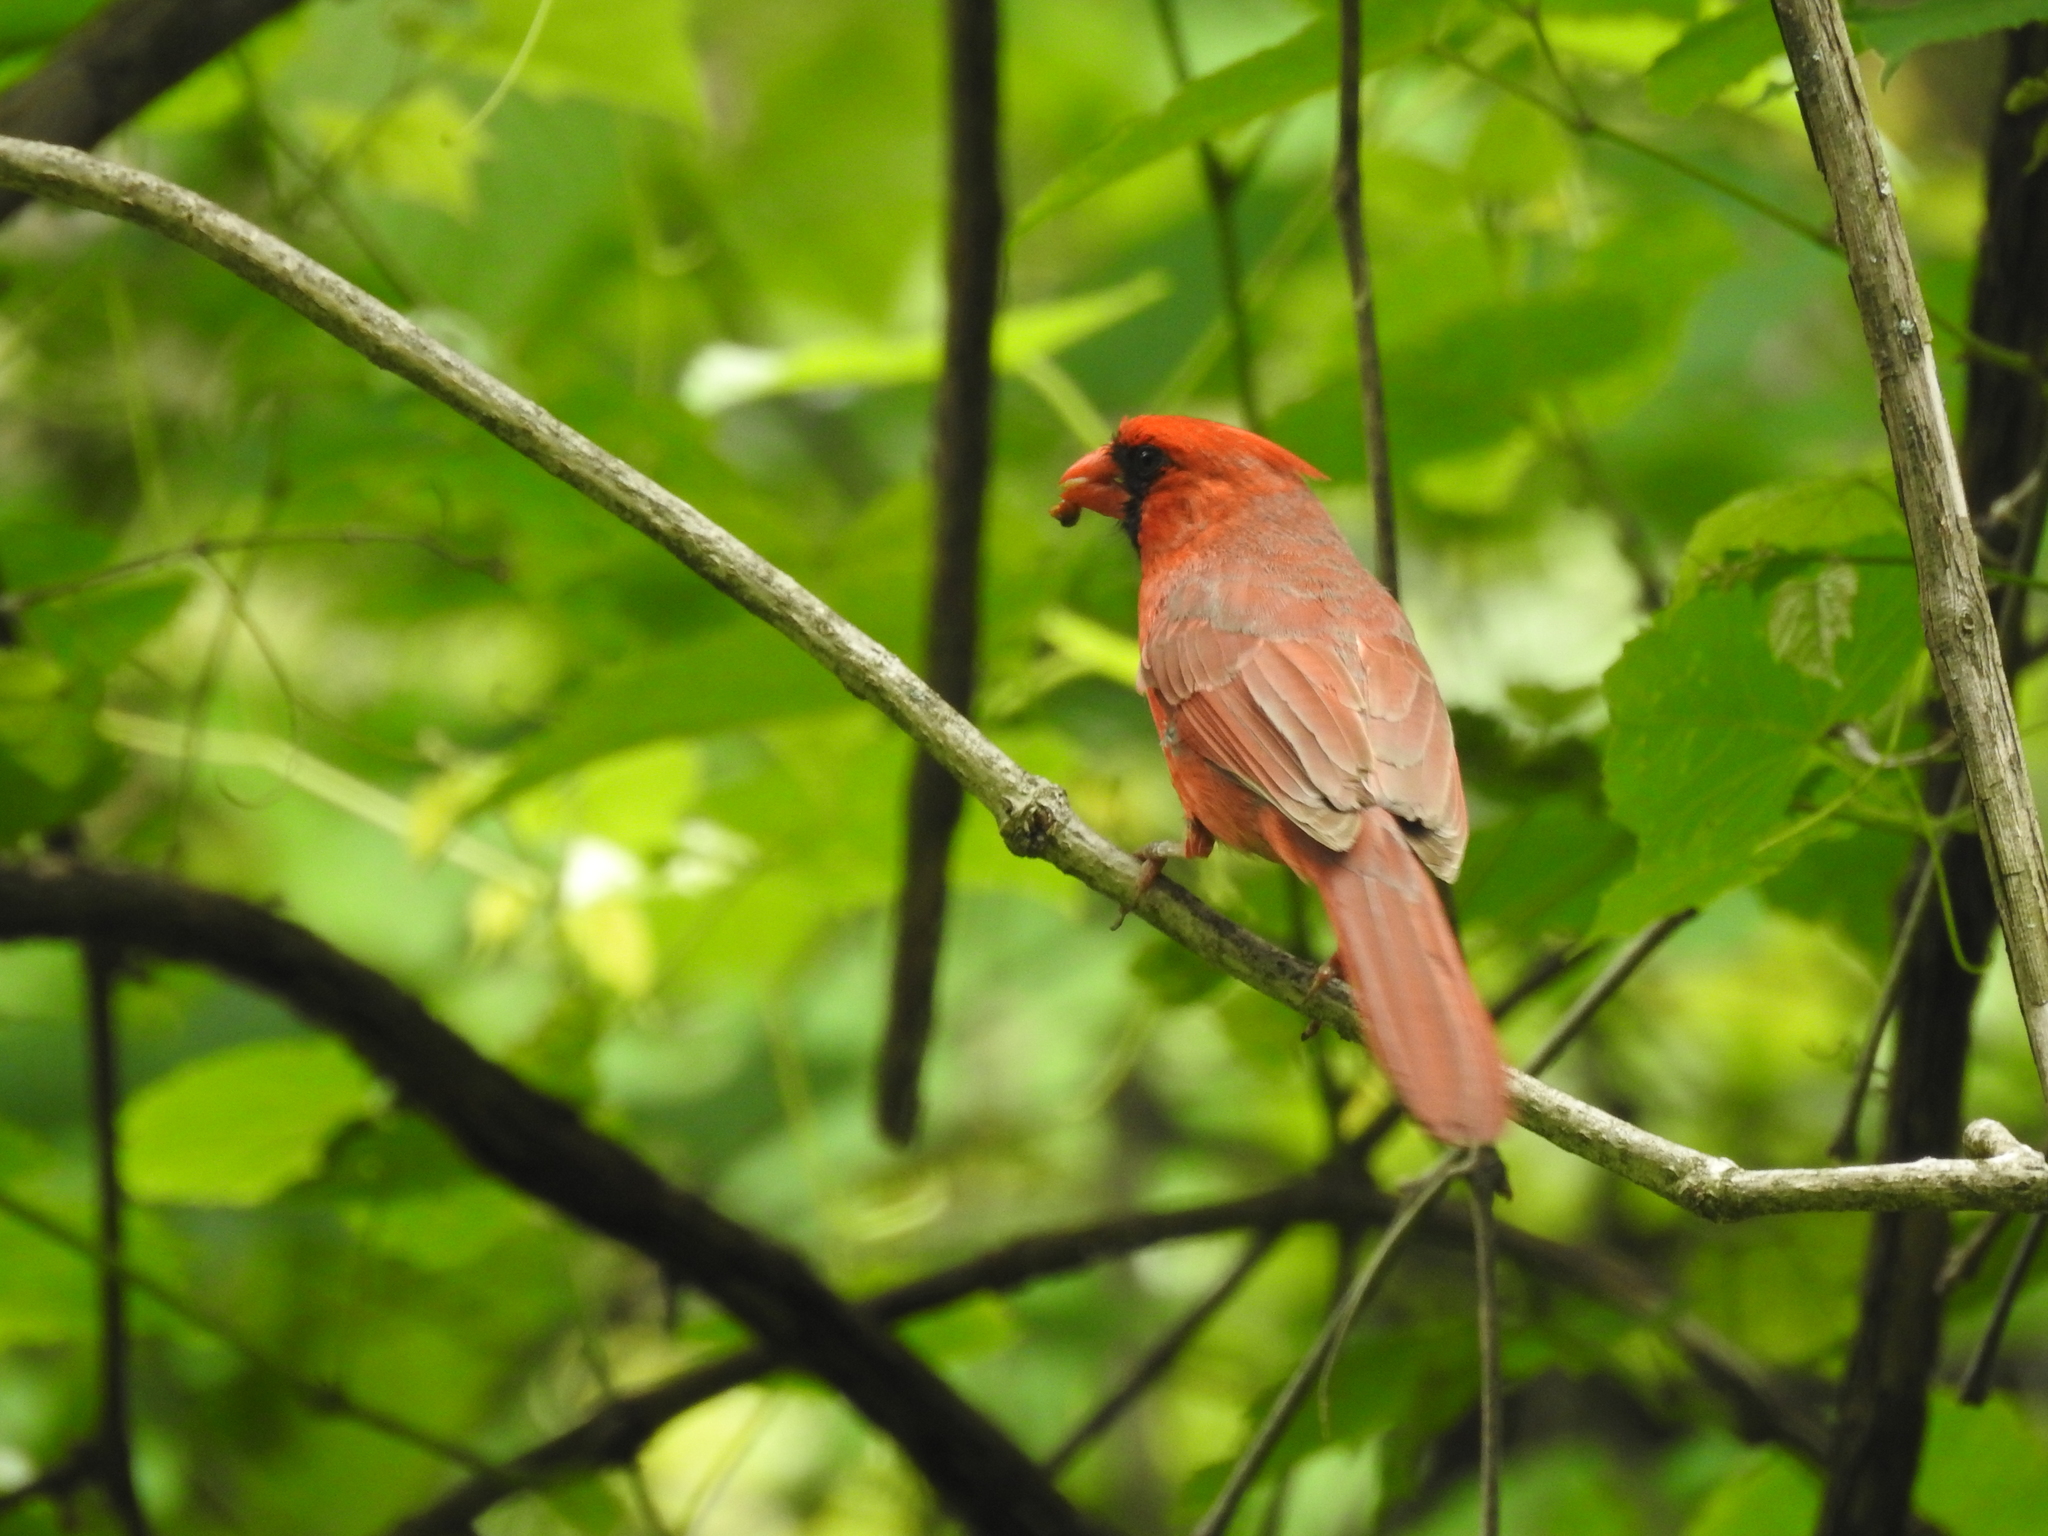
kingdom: Animalia
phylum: Chordata
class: Aves
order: Passeriformes
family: Cardinalidae
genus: Cardinalis
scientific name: Cardinalis cardinalis
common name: Northern cardinal
